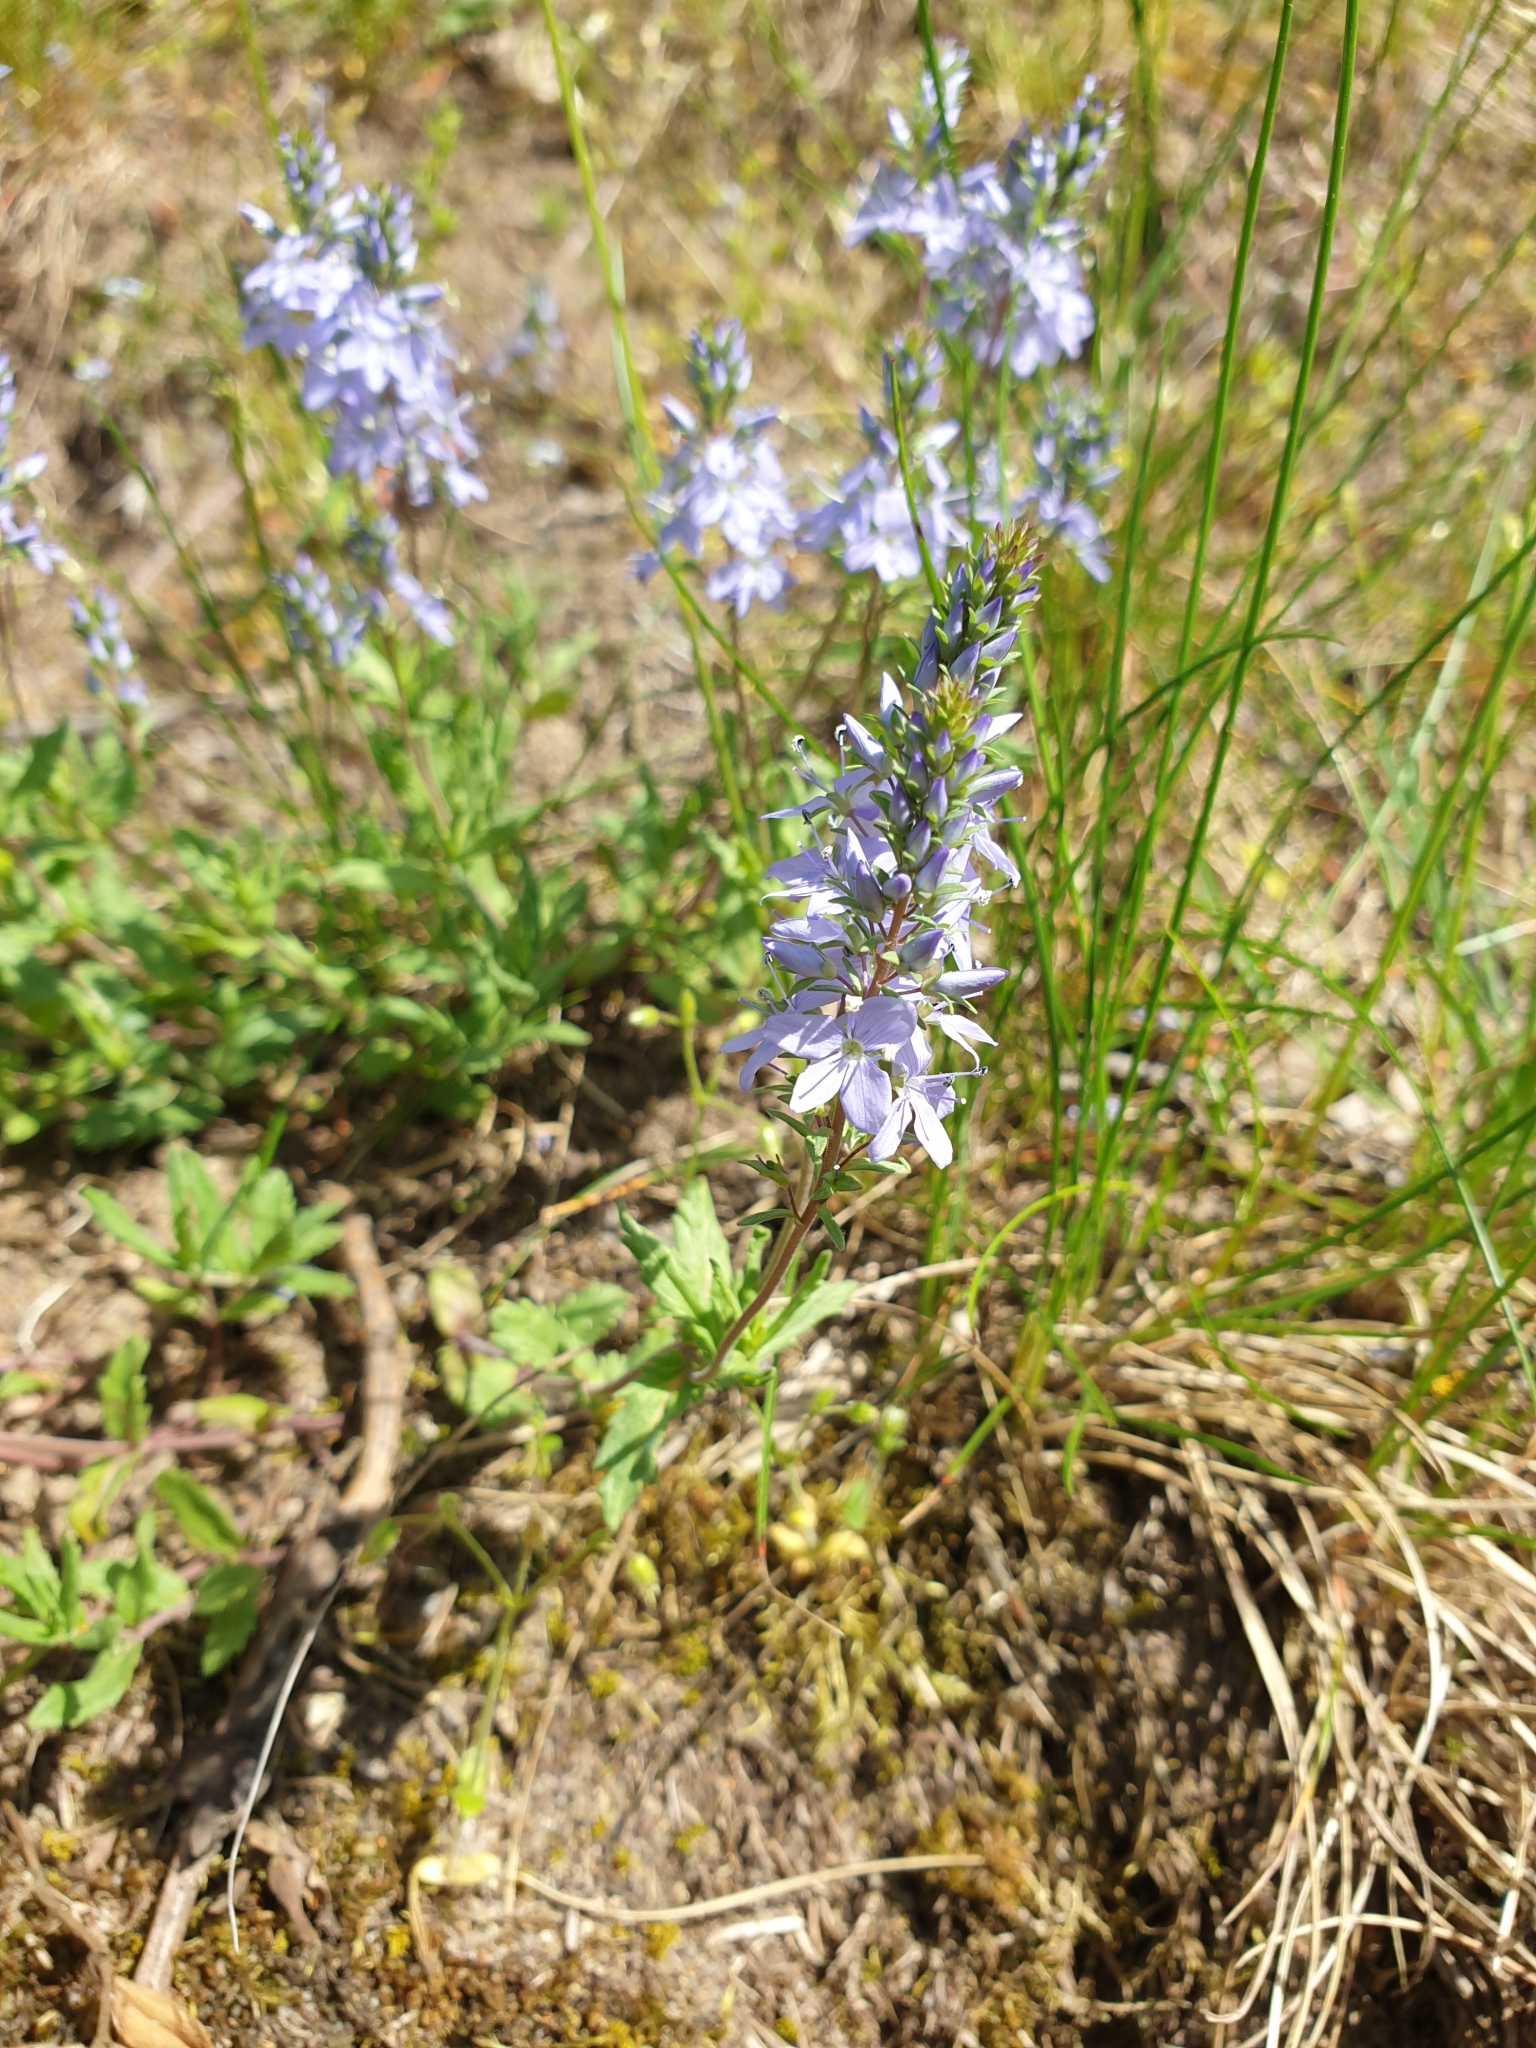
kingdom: Plantae
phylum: Tracheophyta
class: Magnoliopsida
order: Lamiales
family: Plantaginaceae
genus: Veronica
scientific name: Veronica prostrata
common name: Prostrate speedwell
